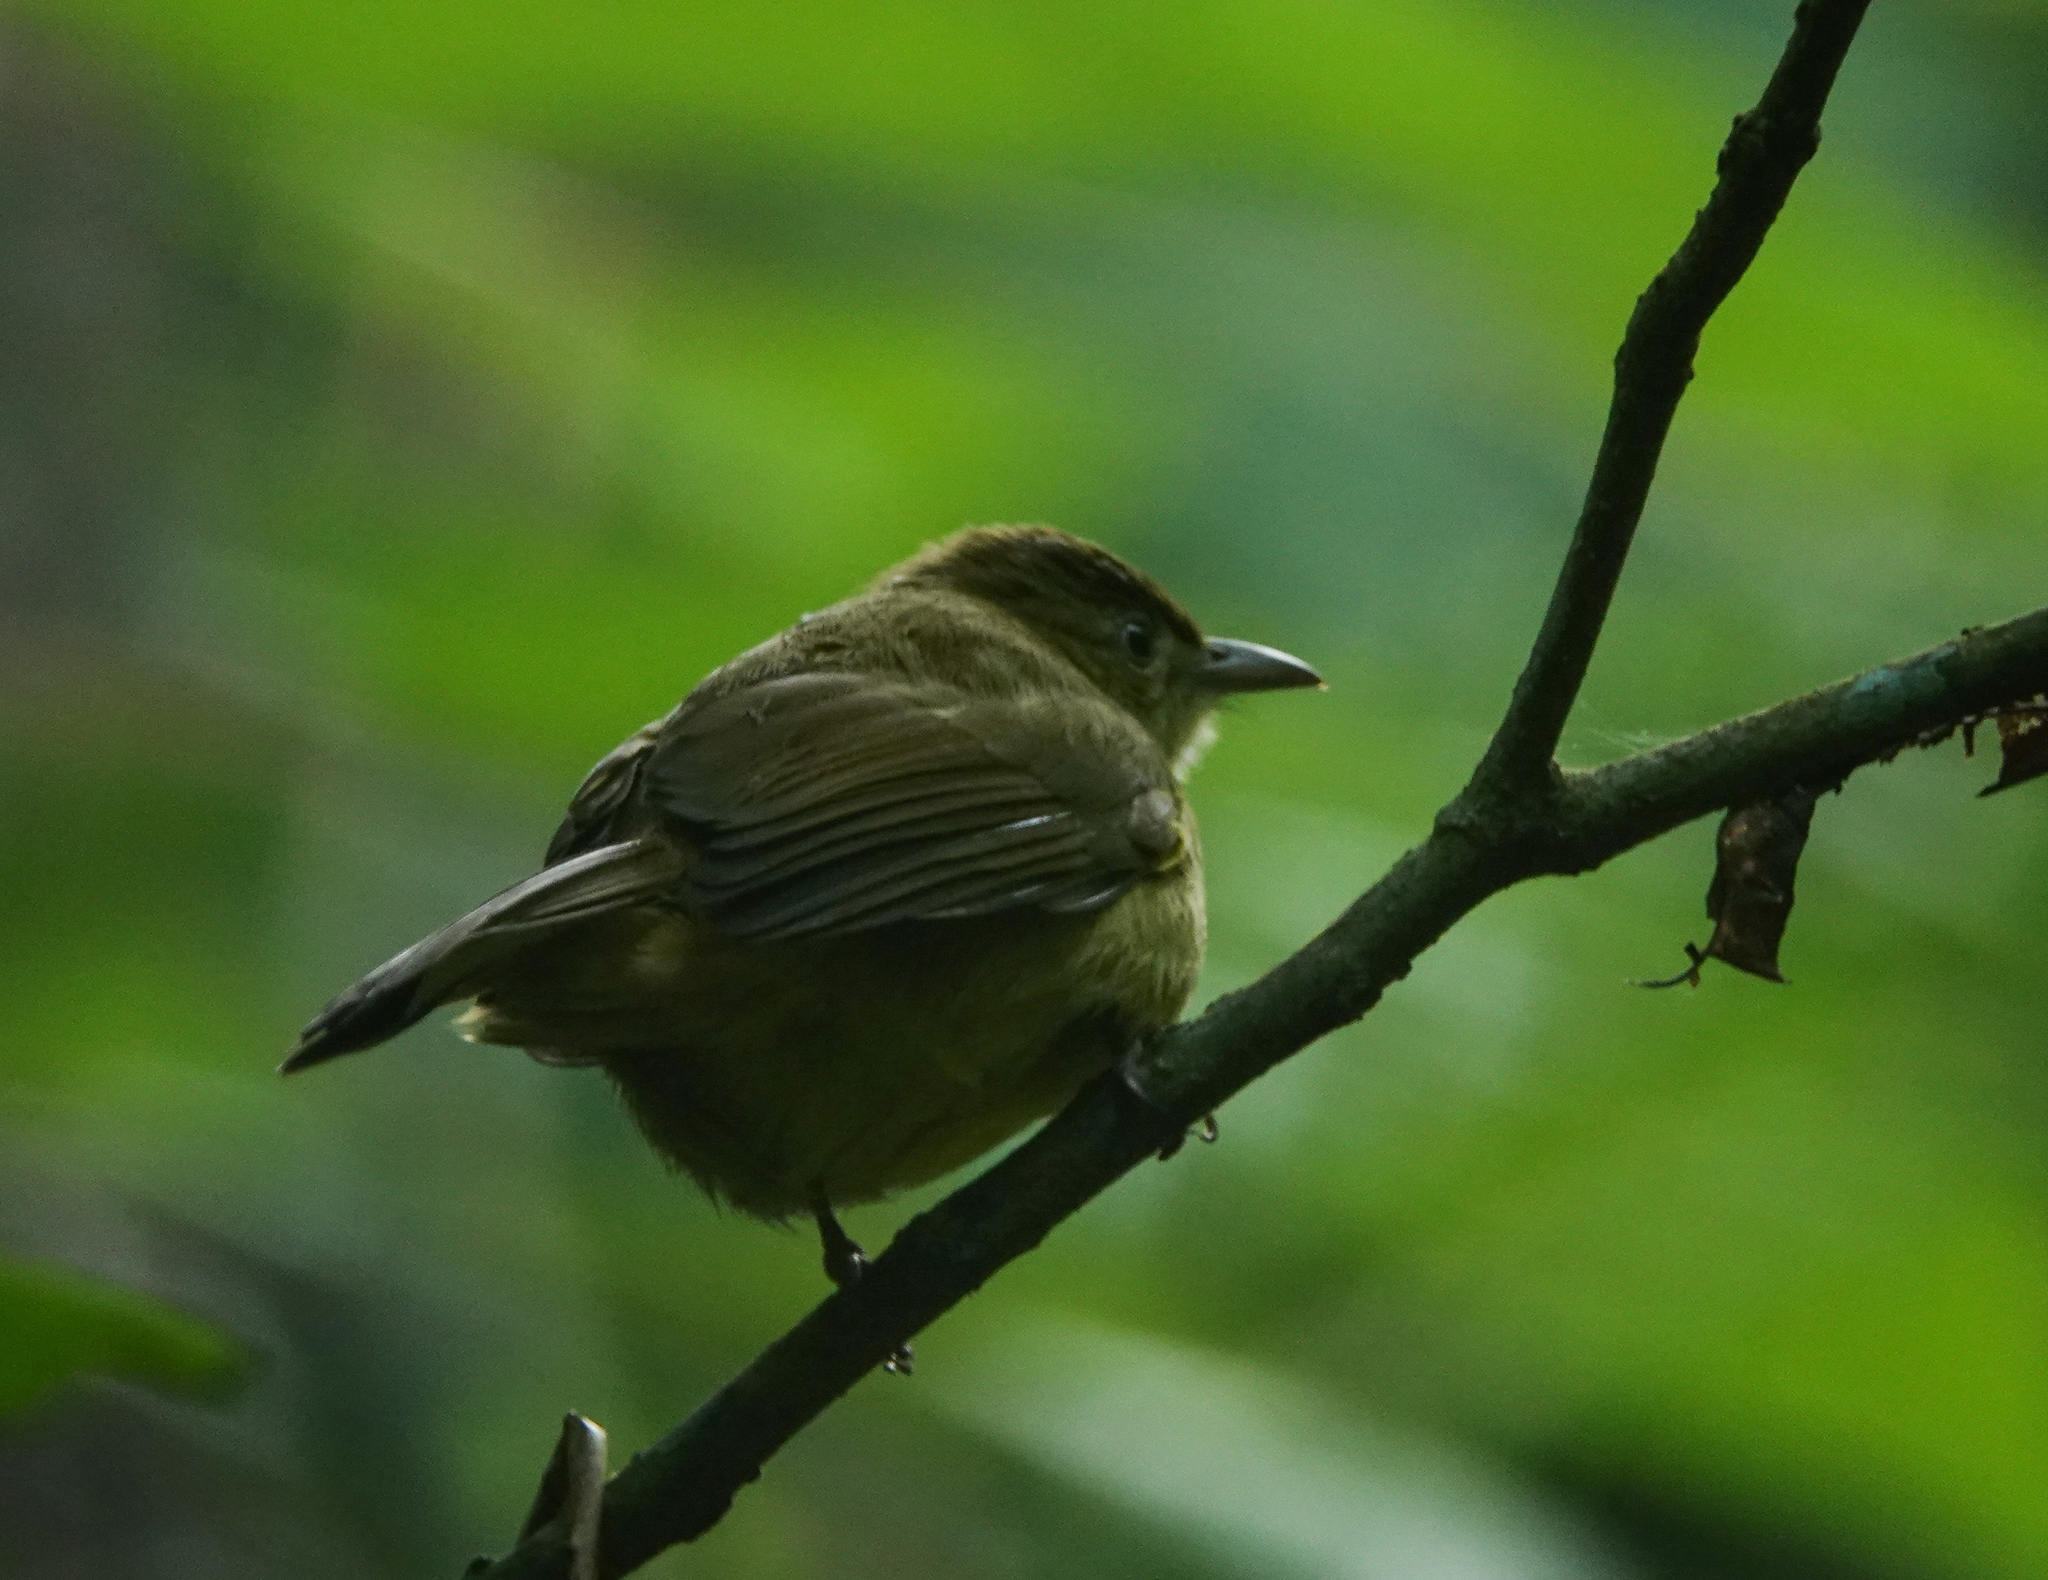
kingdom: Animalia
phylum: Chordata
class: Aves
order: Passeriformes
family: Pycnonotidae
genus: Iole
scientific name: Iole virescens
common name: Olive bulbul
